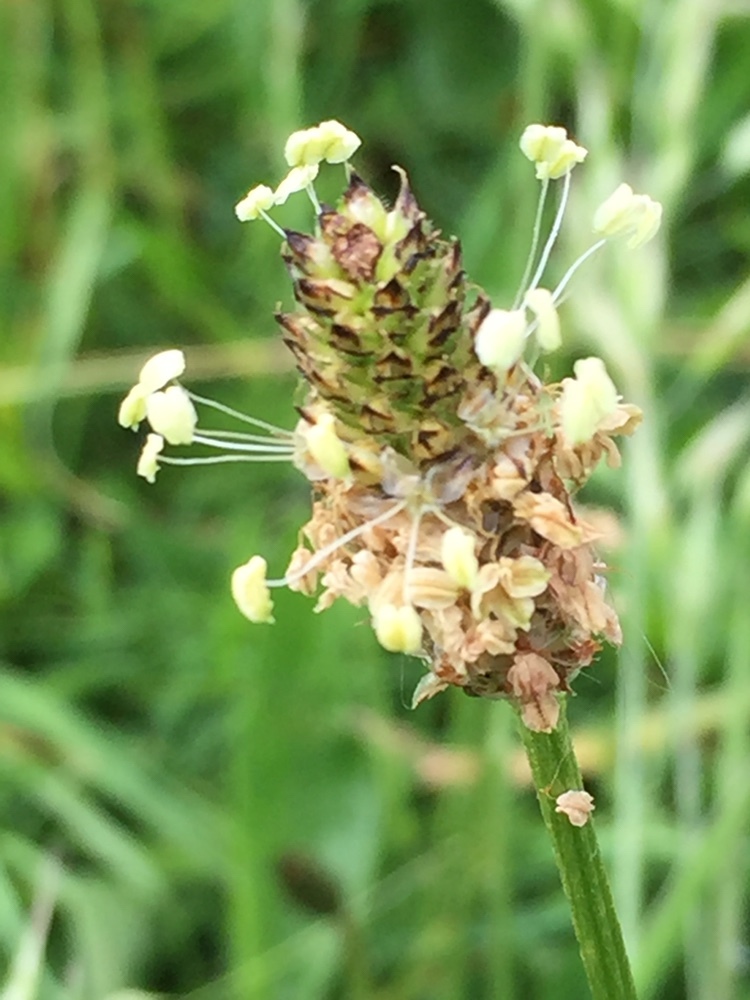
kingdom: Plantae
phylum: Tracheophyta
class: Magnoliopsida
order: Lamiales
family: Plantaginaceae
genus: Plantago
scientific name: Plantago lanceolata
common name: Ribwort plantain
